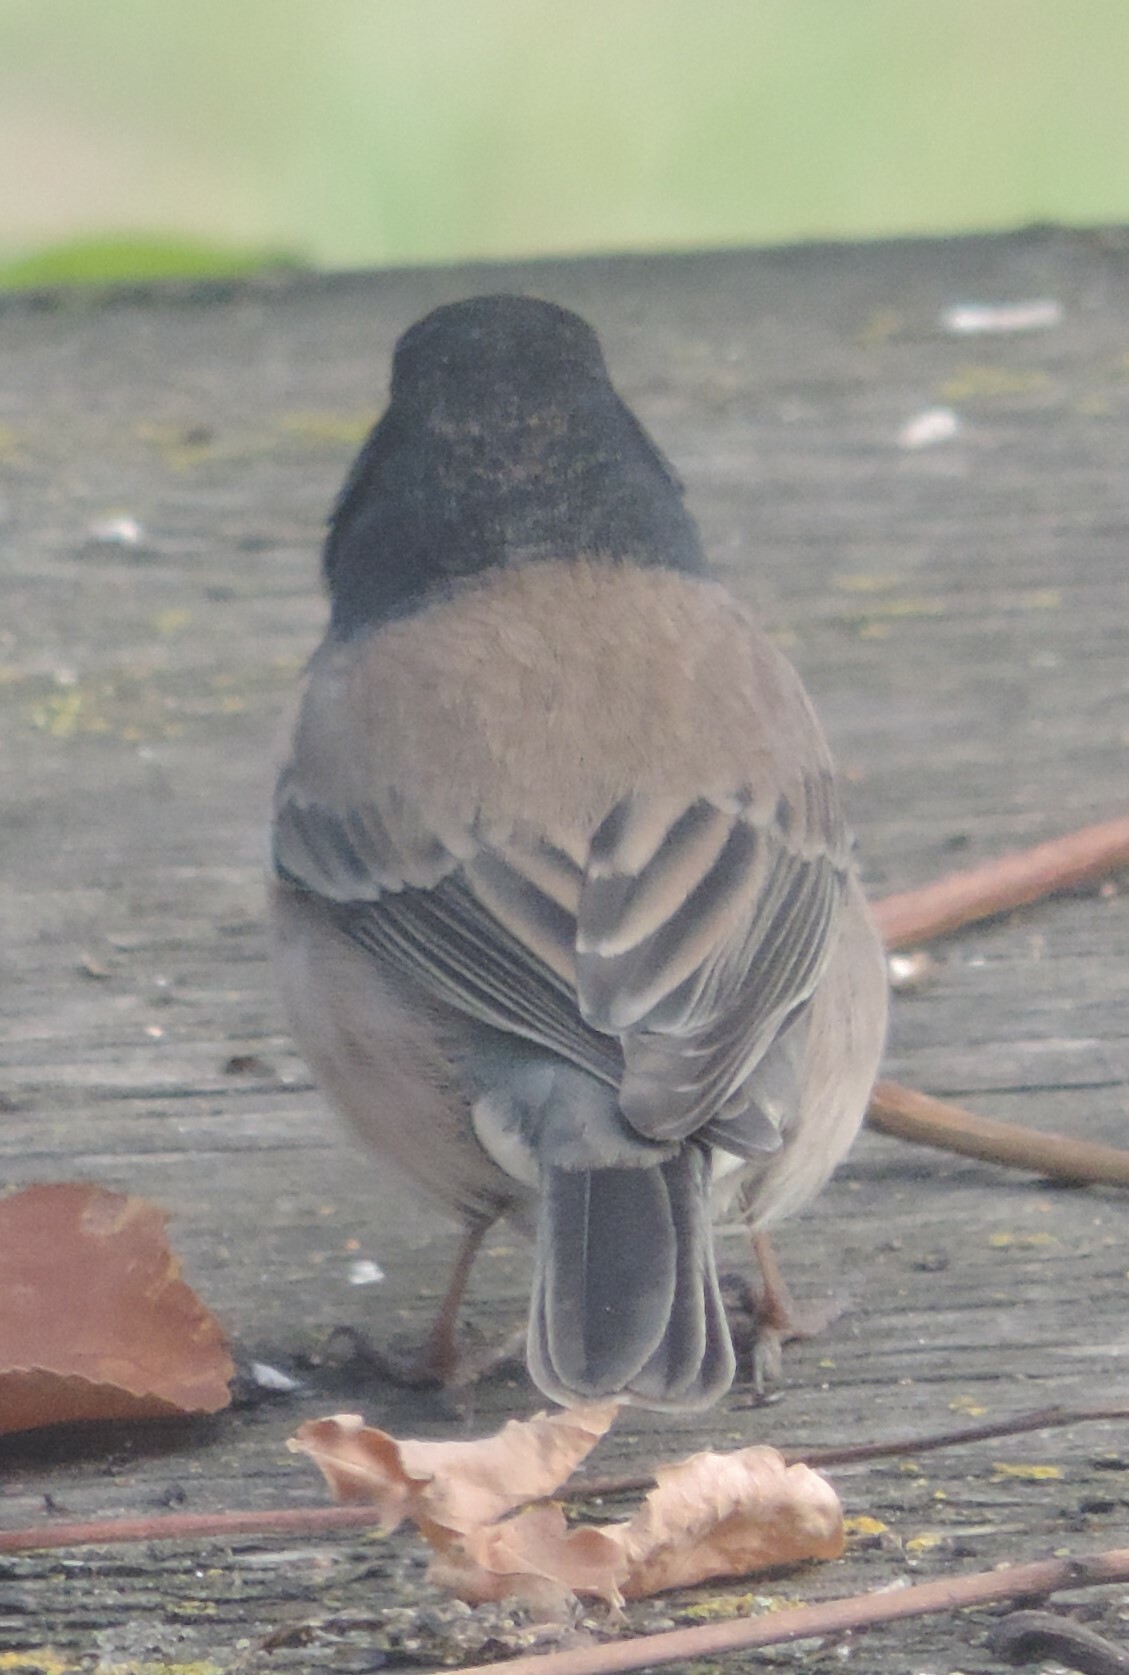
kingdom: Animalia
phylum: Chordata
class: Aves
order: Passeriformes
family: Passerellidae
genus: Junco
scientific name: Junco hyemalis
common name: Dark-eyed junco
